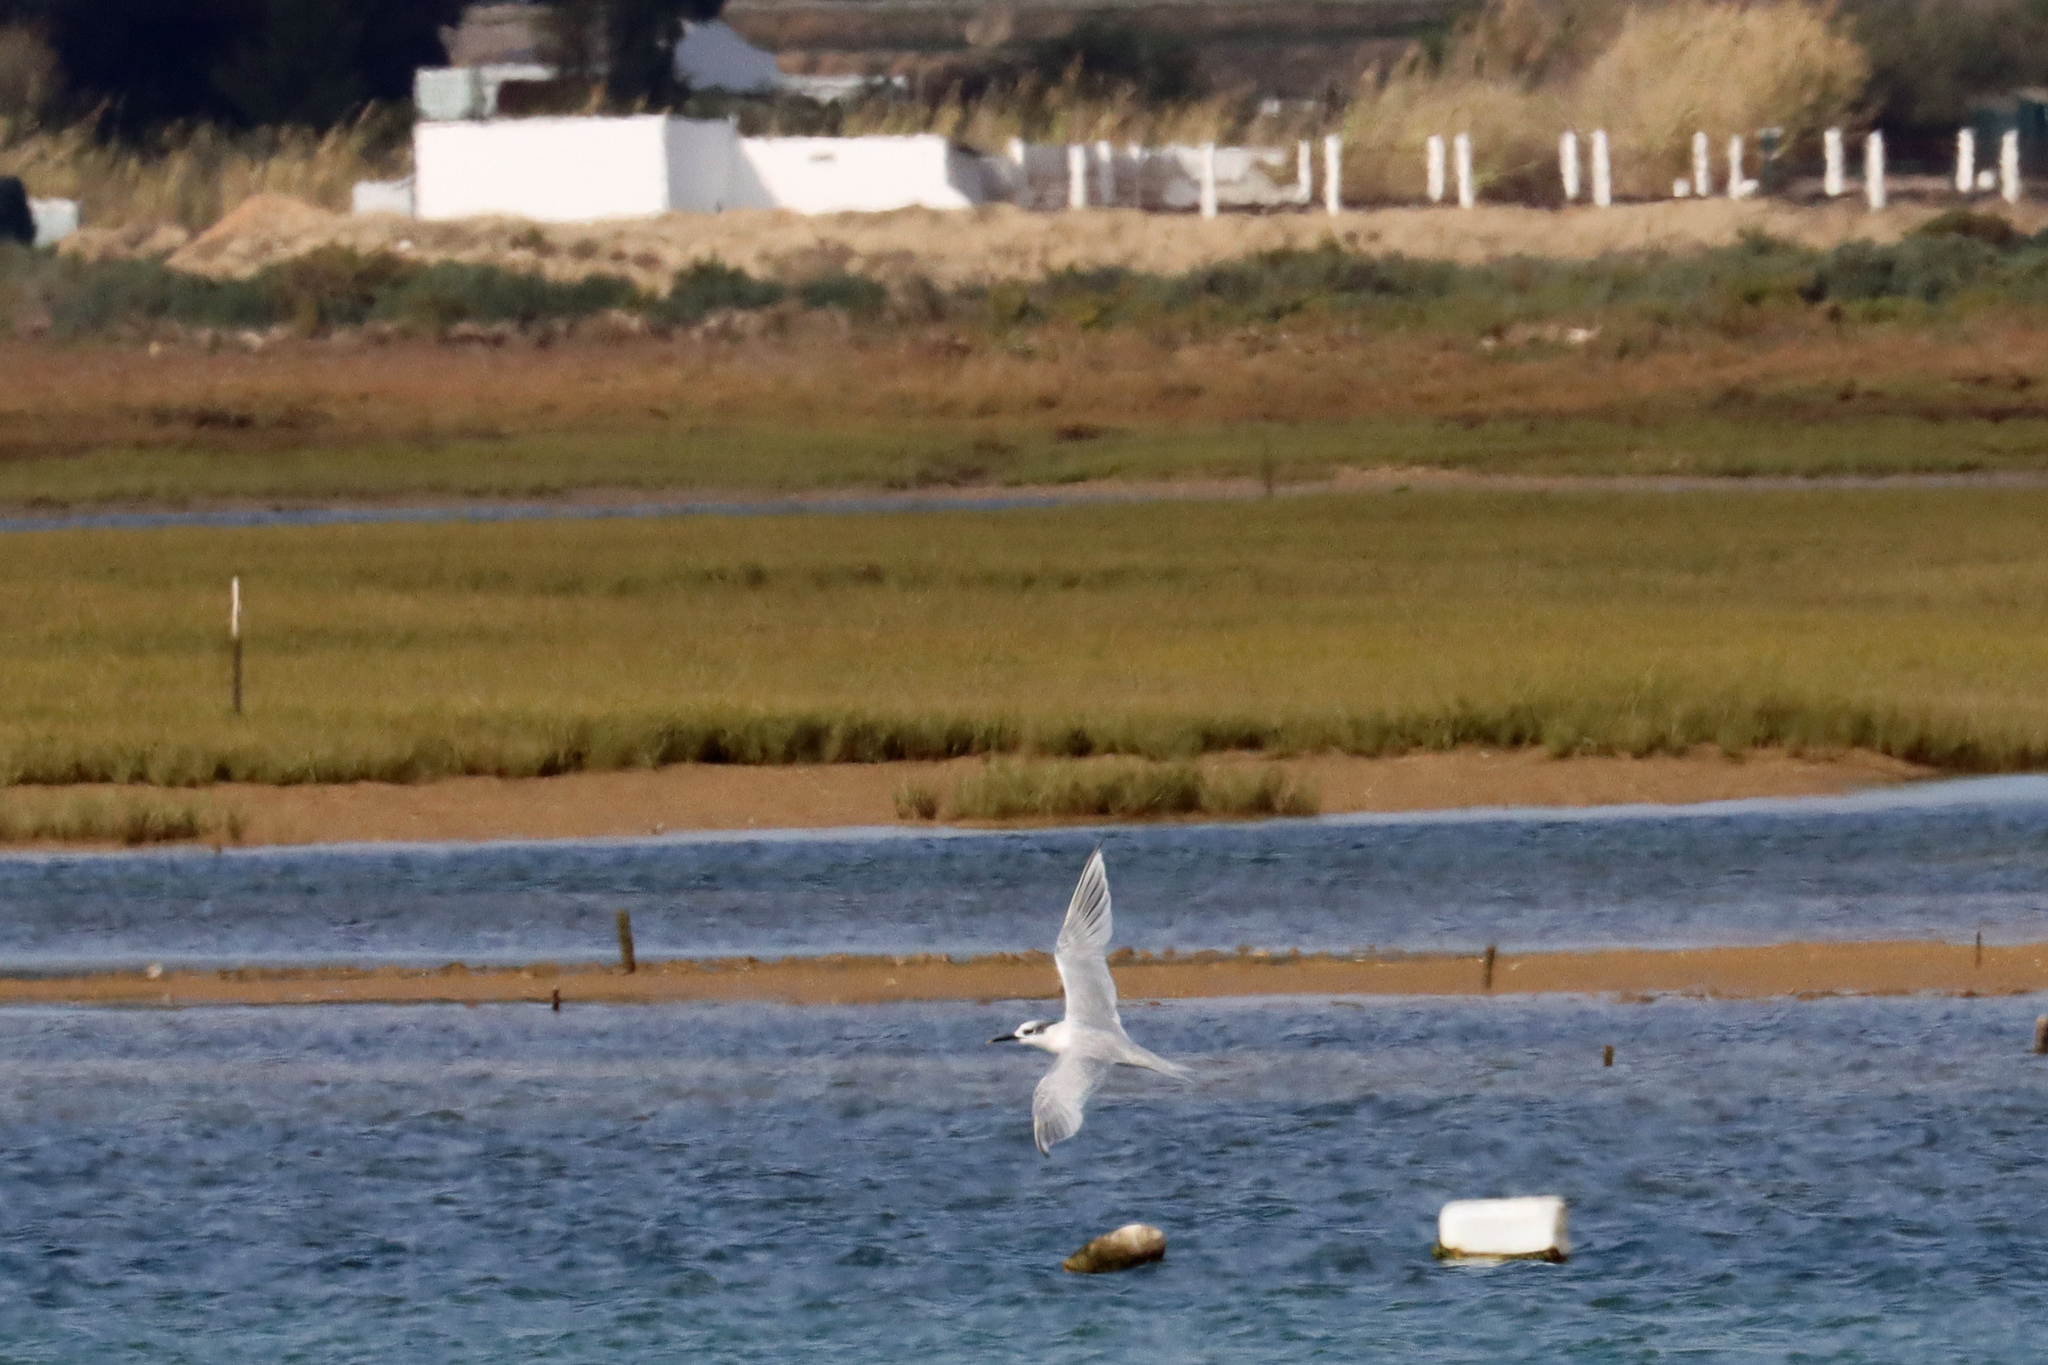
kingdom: Animalia
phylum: Chordata
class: Aves
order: Charadriiformes
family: Laridae
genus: Thalasseus
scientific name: Thalasseus sandvicensis
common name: Sandwich tern
